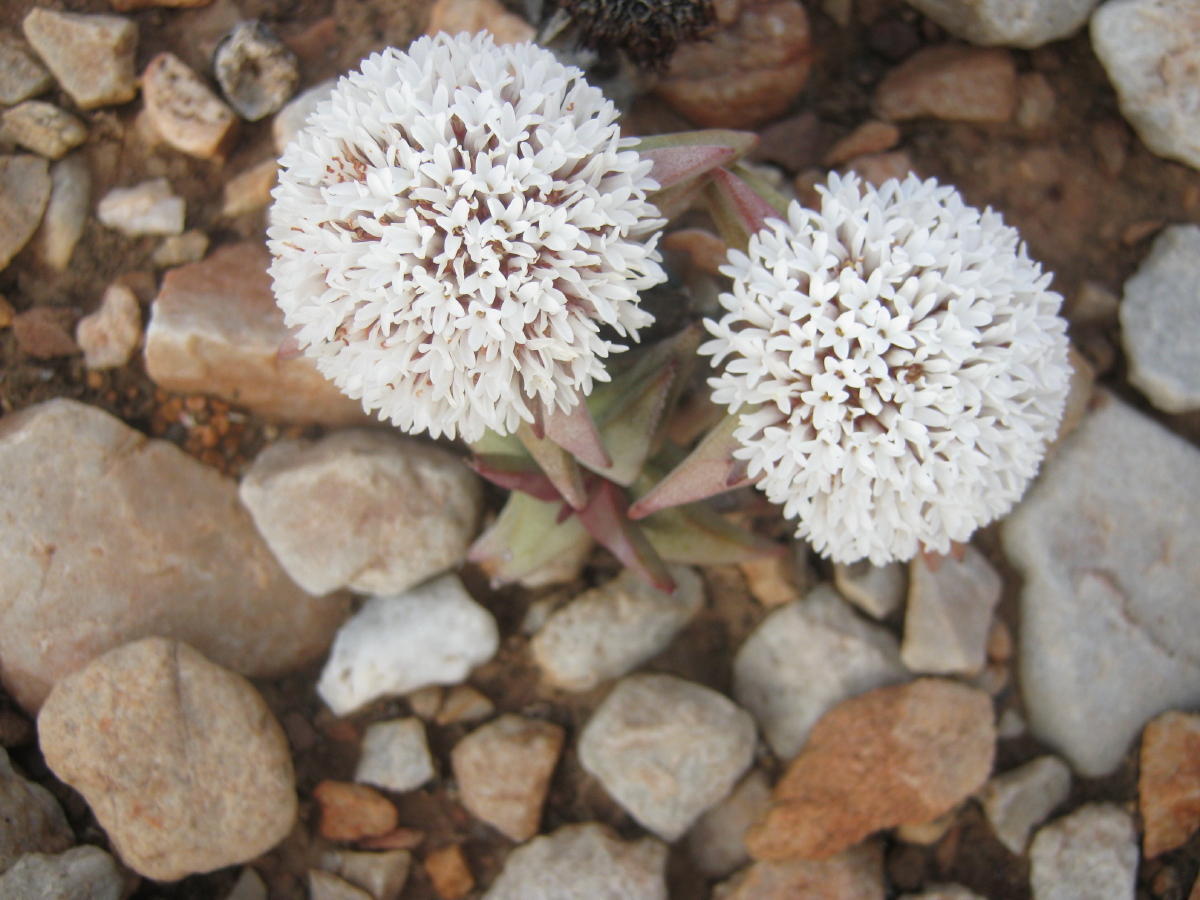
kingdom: Plantae
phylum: Tracheophyta
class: Magnoliopsida
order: Saxifragales
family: Crassulaceae
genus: Crassula
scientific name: Crassula congesta
